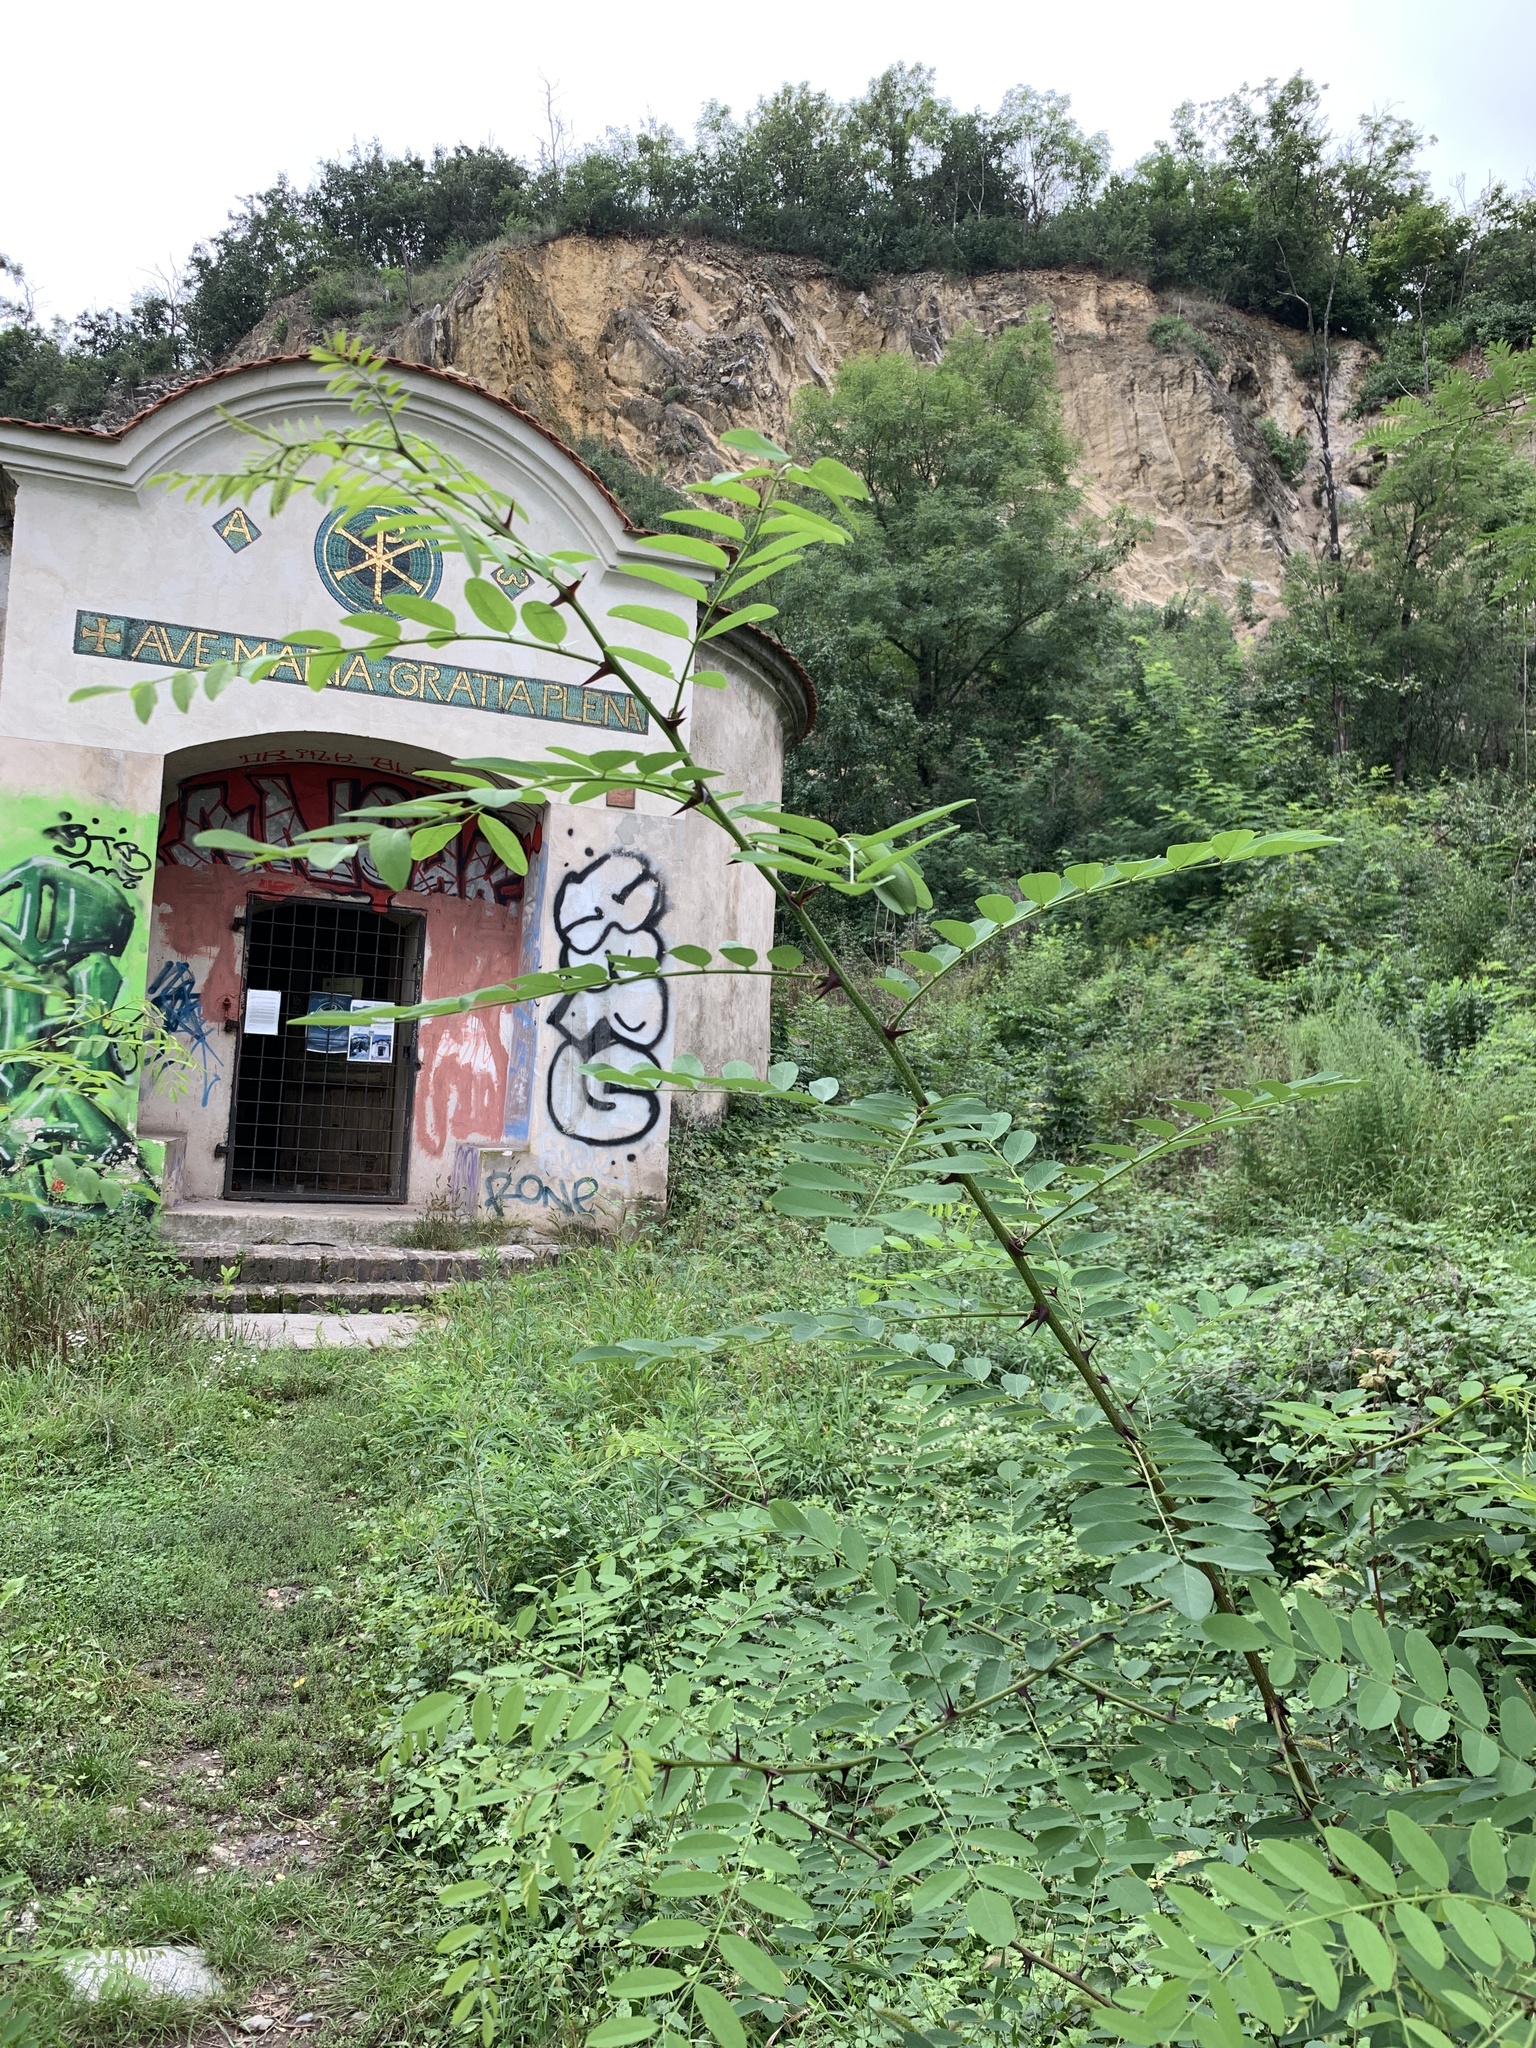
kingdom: Plantae
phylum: Tracheophyta
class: Magnoliopsida
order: Fabales
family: Fabaceae
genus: Robinia
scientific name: Robinia pseudoacacia
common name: Black locust
